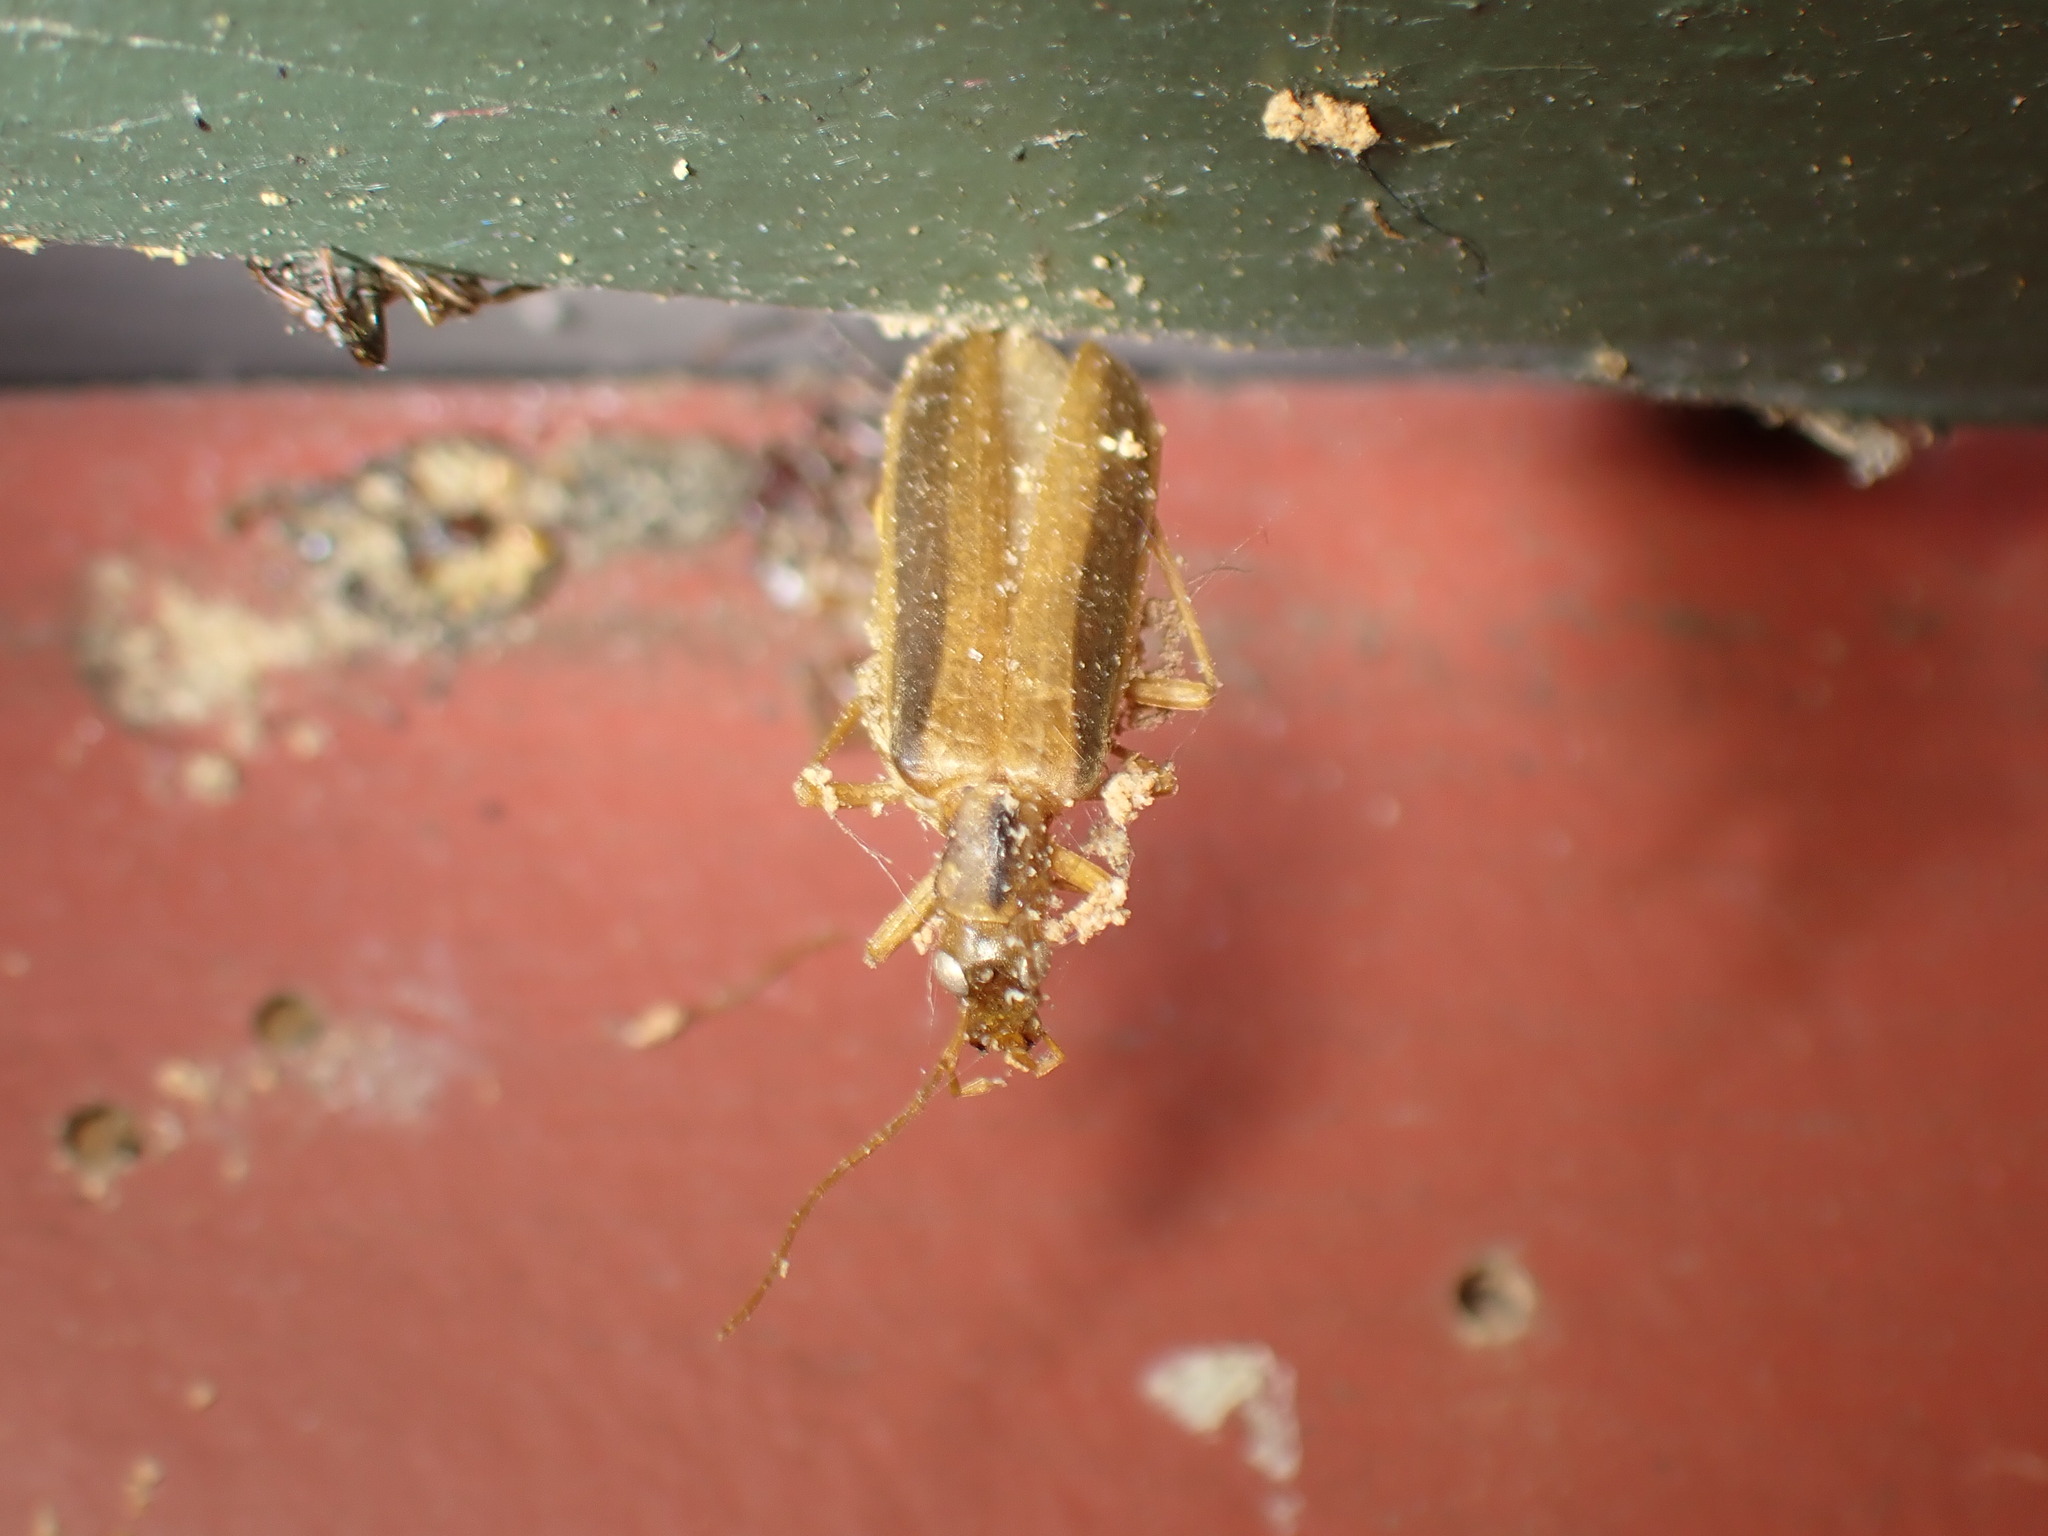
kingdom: Animalia
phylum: Arthropoda
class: Insecta
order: Coleoptera
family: Oedemeridae
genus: Thelyphassa
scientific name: Thelyphassa
